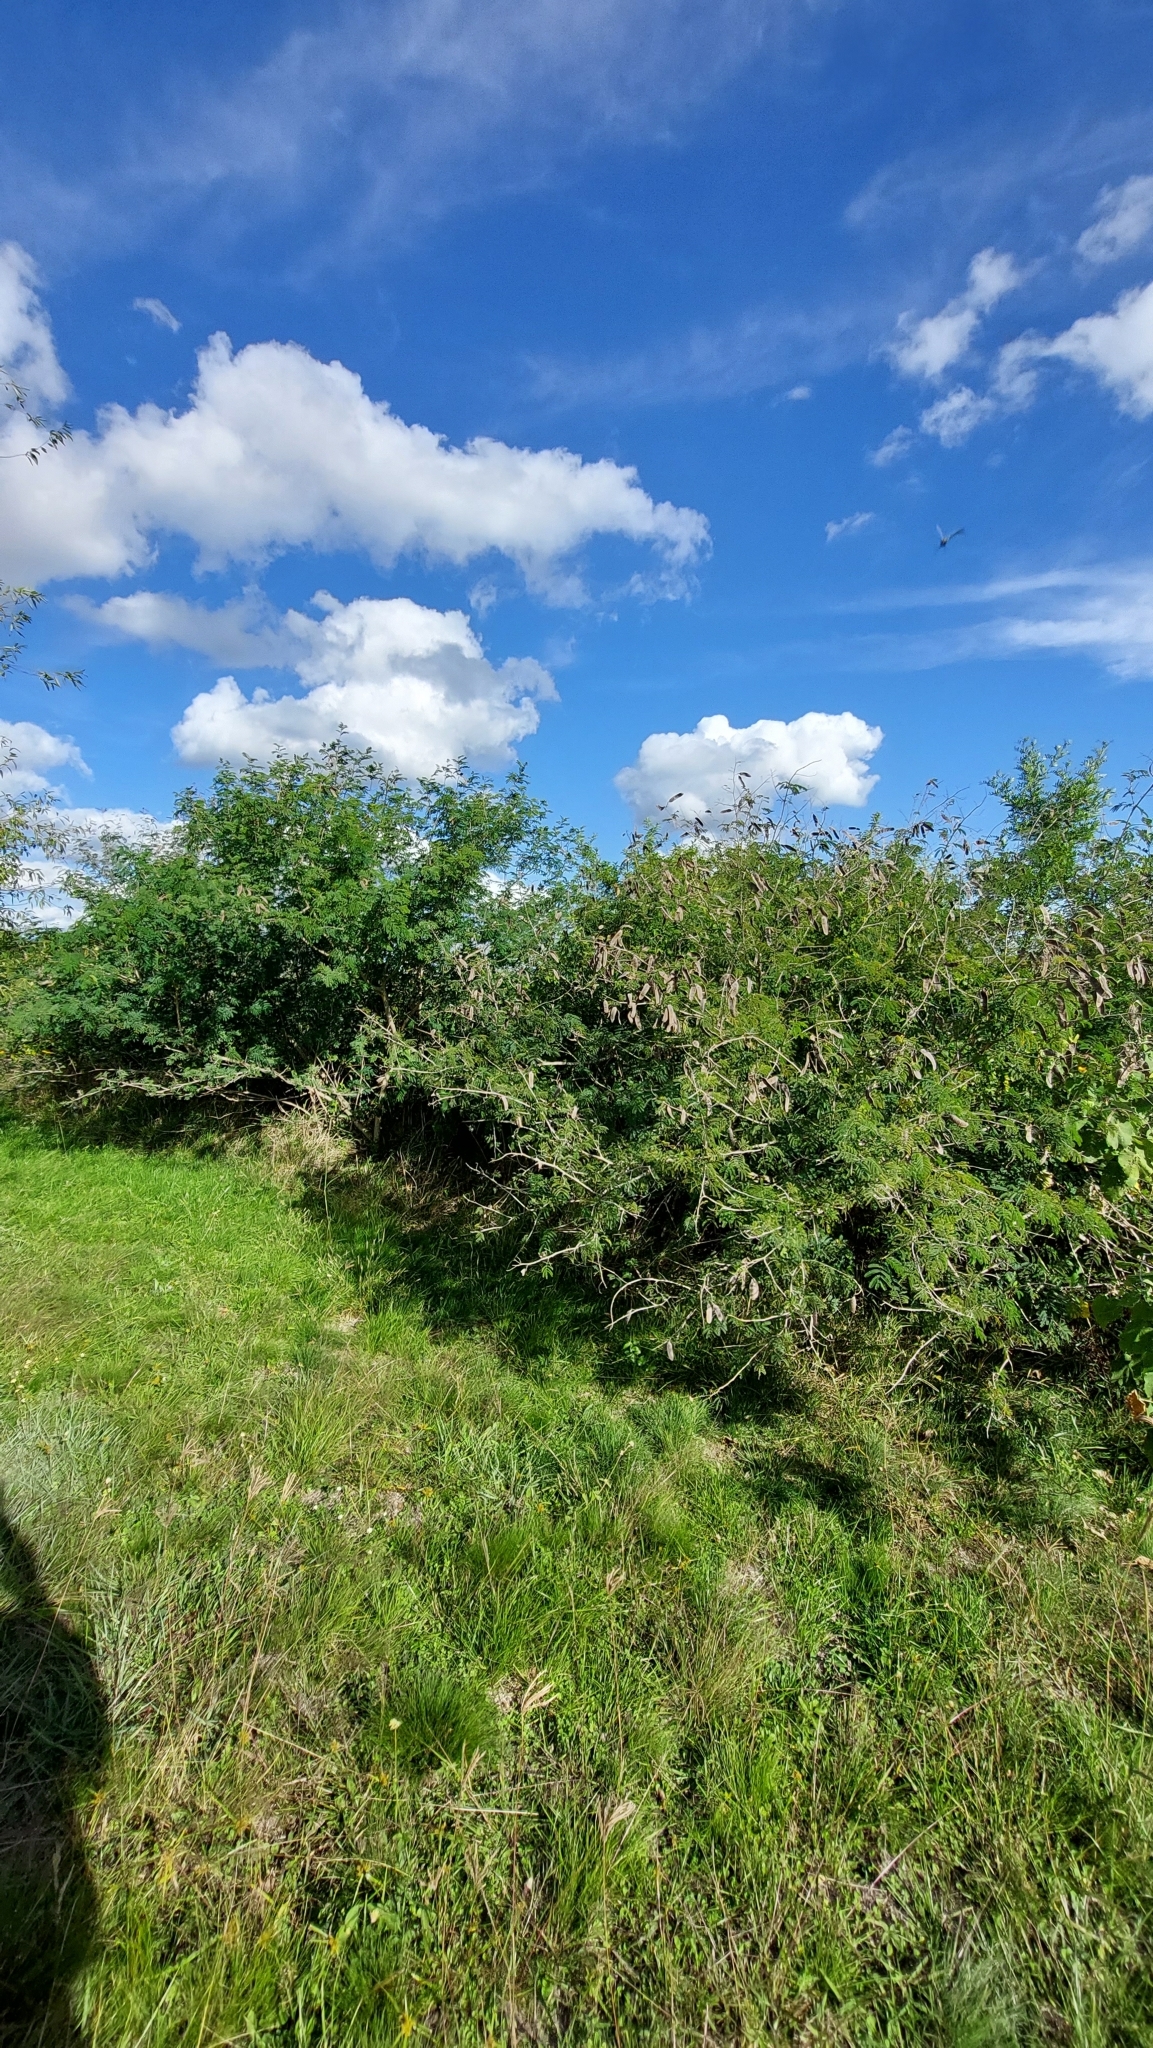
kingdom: Plantae
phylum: Tracheophyta
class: Magnoliopsida
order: Fabales
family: Fabaceae
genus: Senegalia
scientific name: Senegalia bonariensis
